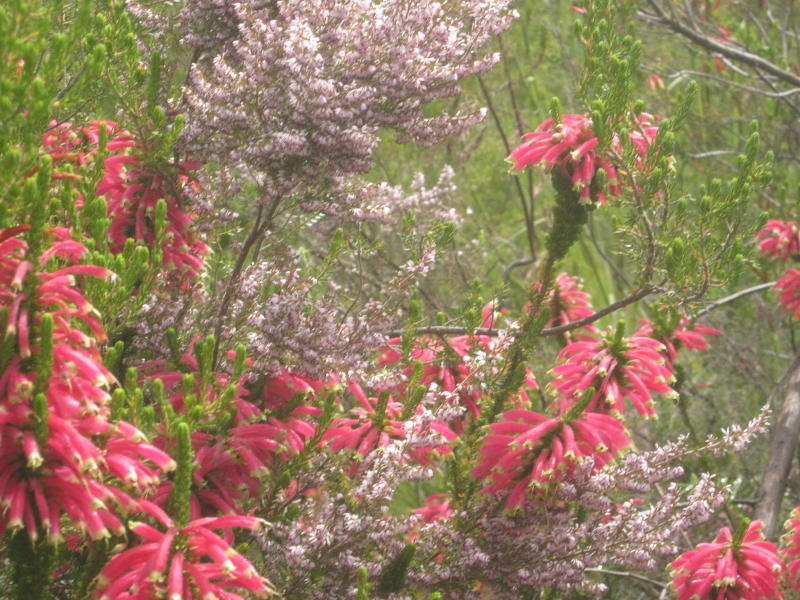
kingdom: Plantae
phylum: Tracheophyta
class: Magnoliopsida
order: Ericales
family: Ericaceae
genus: Erica
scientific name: Erica densifolia
